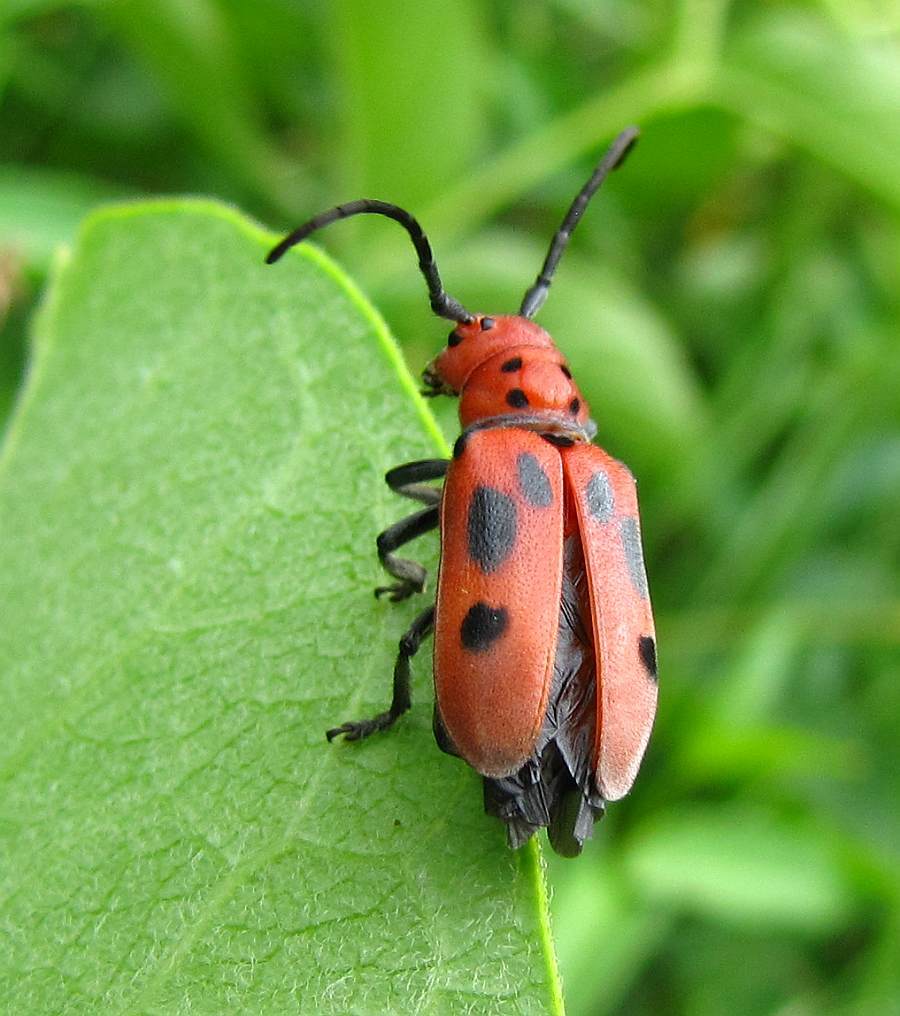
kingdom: Animalia
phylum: Arthropoda
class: Insecta
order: Coleoptera
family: Cerambycidae
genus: Tetraopes
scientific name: Tetraopes tetrophthalmus
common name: Red milkweed beetle
